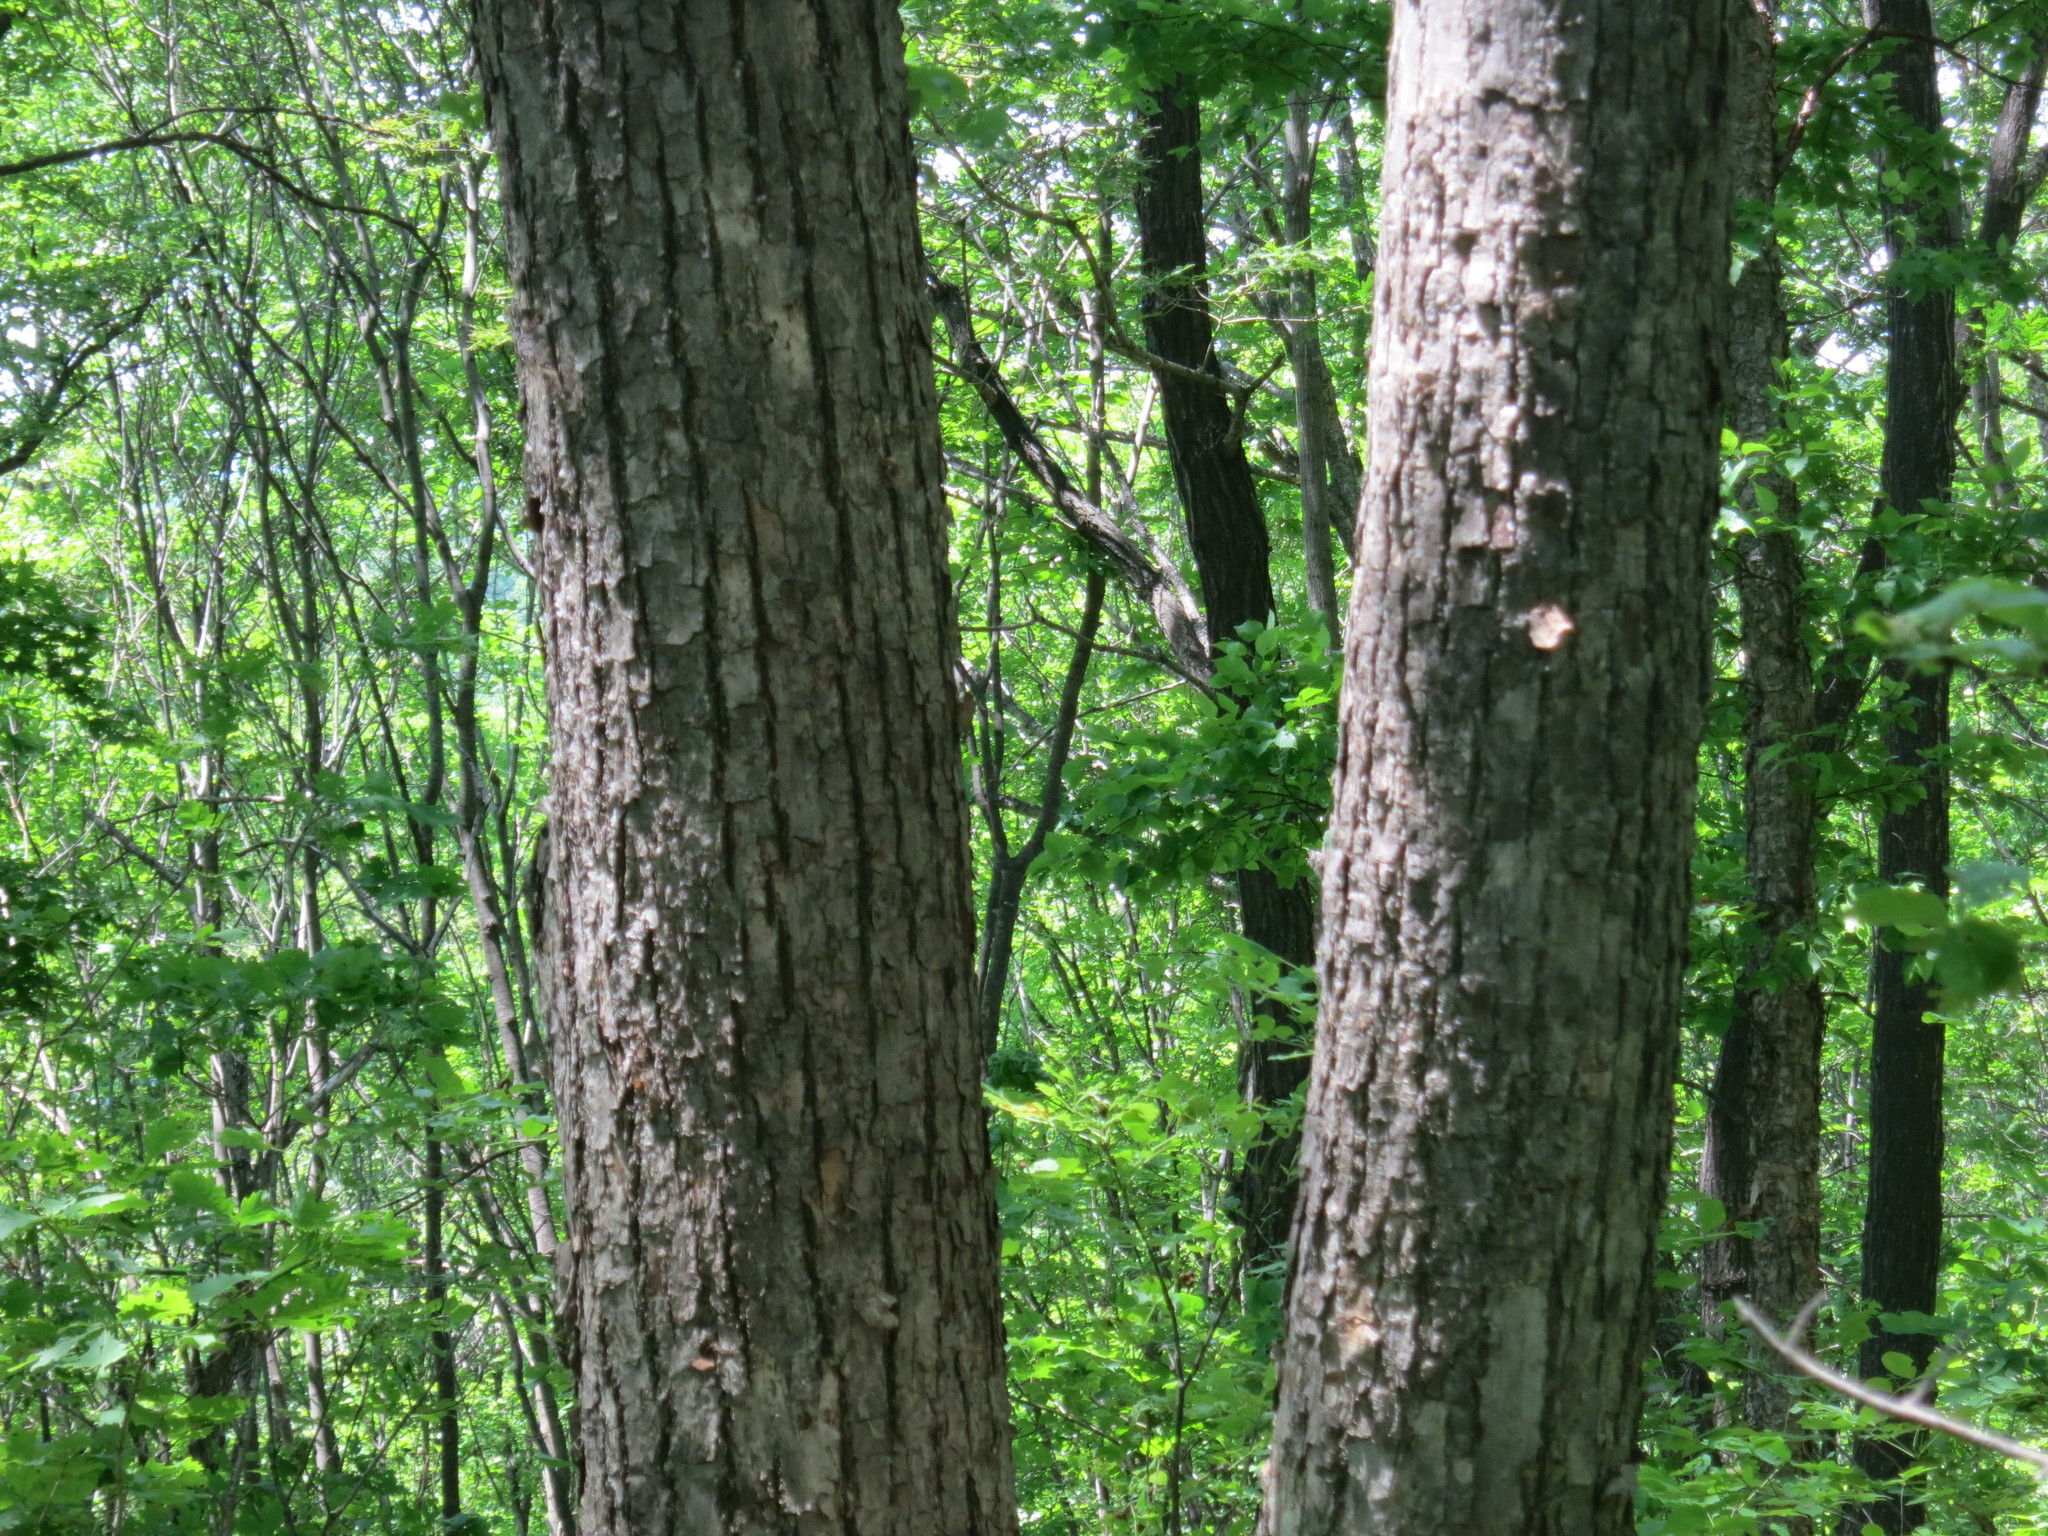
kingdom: Plantae
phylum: Tracheophyta
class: Magnoliopsida
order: Malvales
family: Malvaceae
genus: Tilia
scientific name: Tilia amurensis
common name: Amur lime
